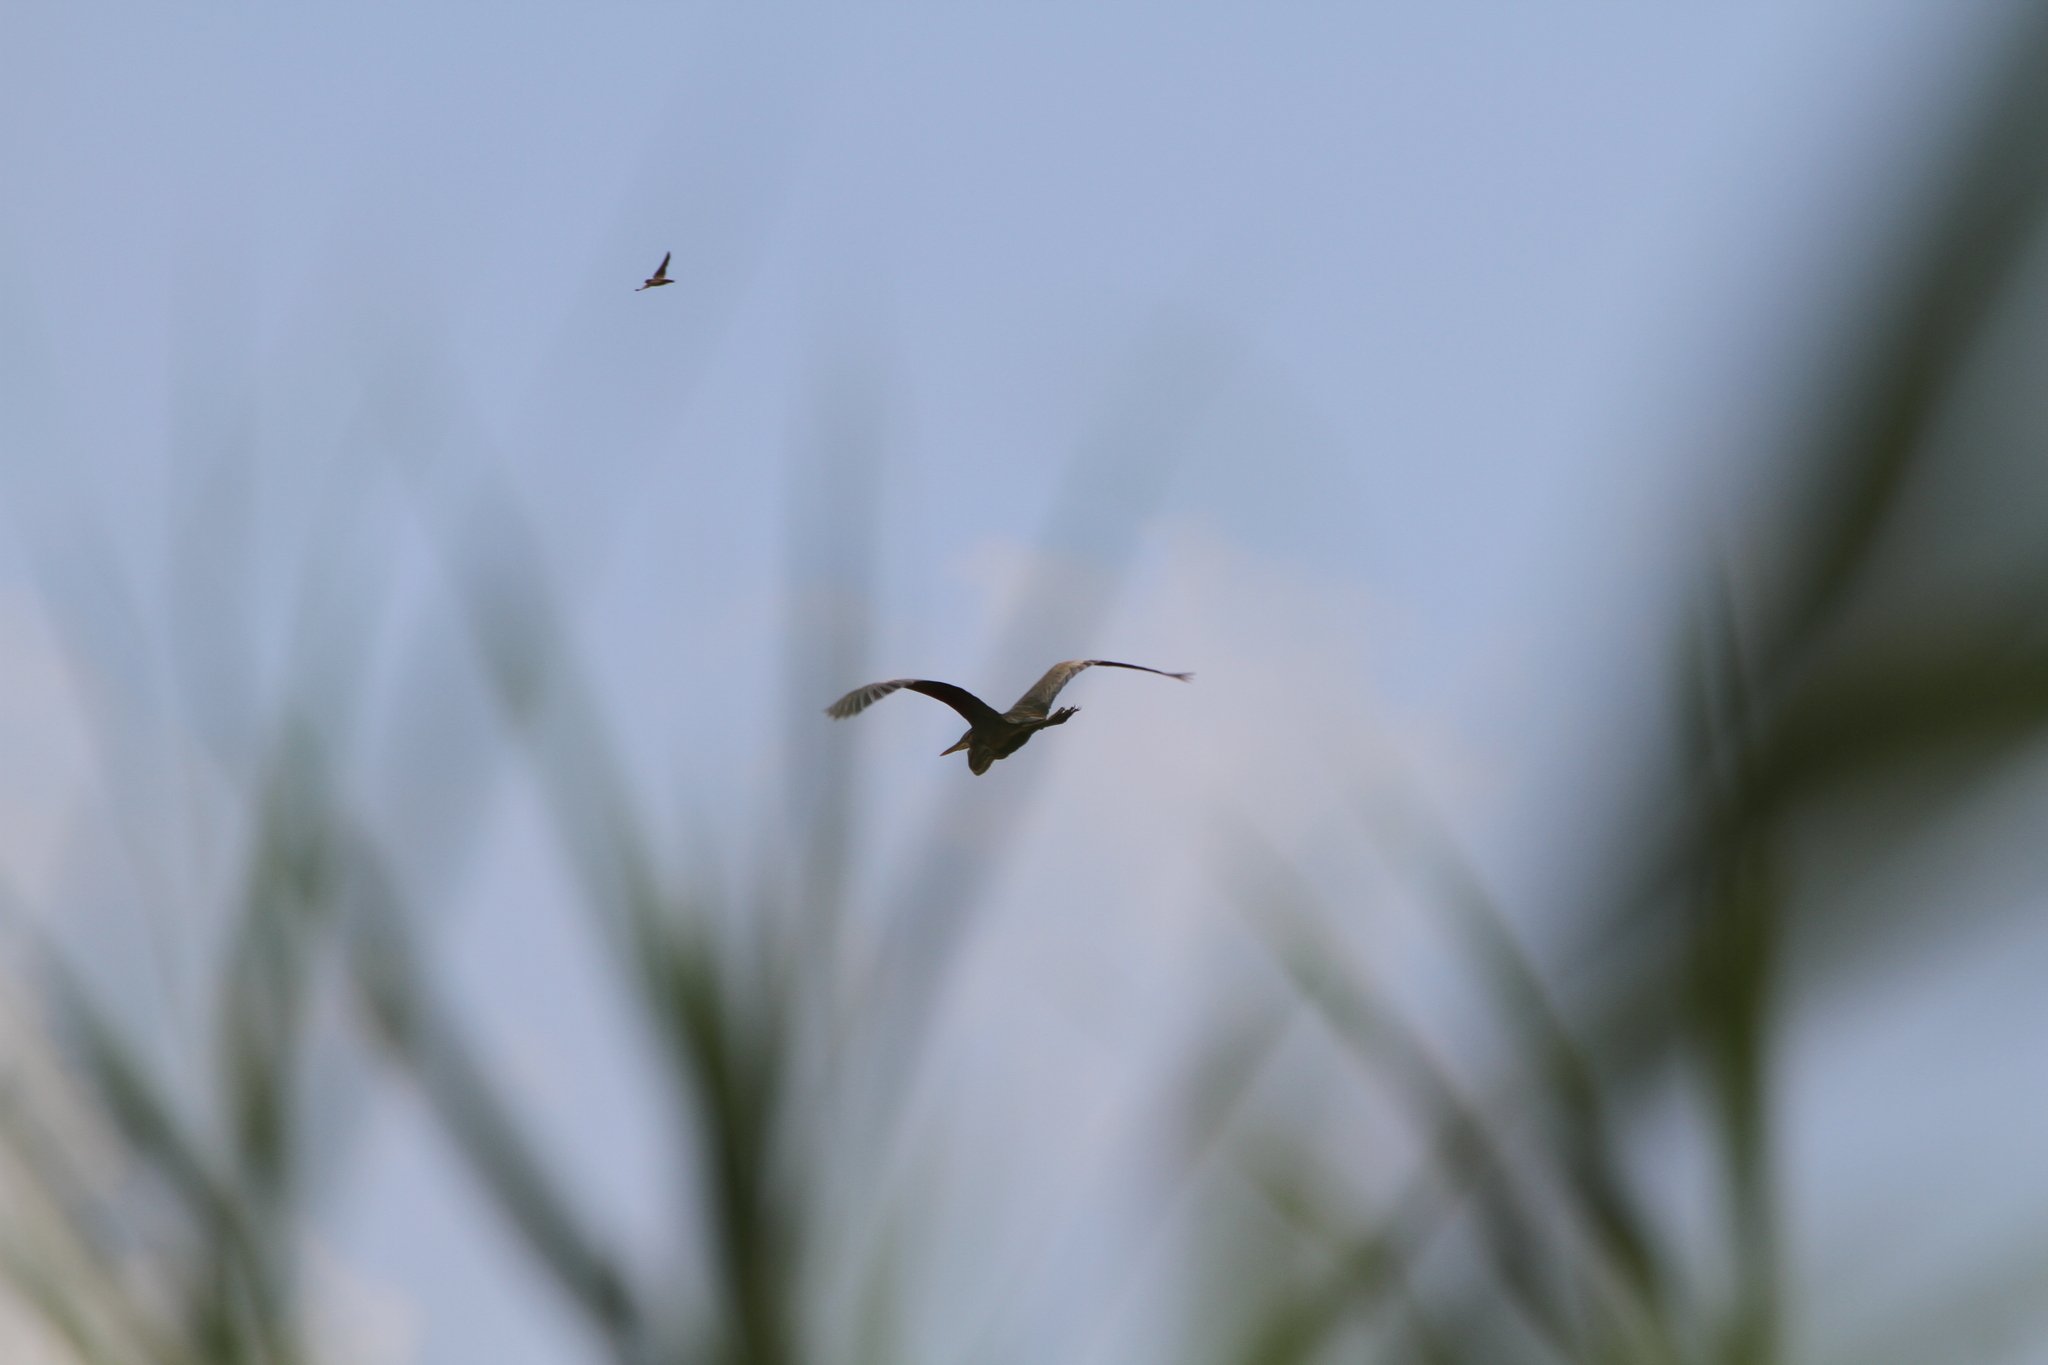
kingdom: Animalia
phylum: Chordata
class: Aves
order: Pelecaniformes
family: Ardeidae
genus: Ardea
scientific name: Ardea purpurea
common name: Purple heron
